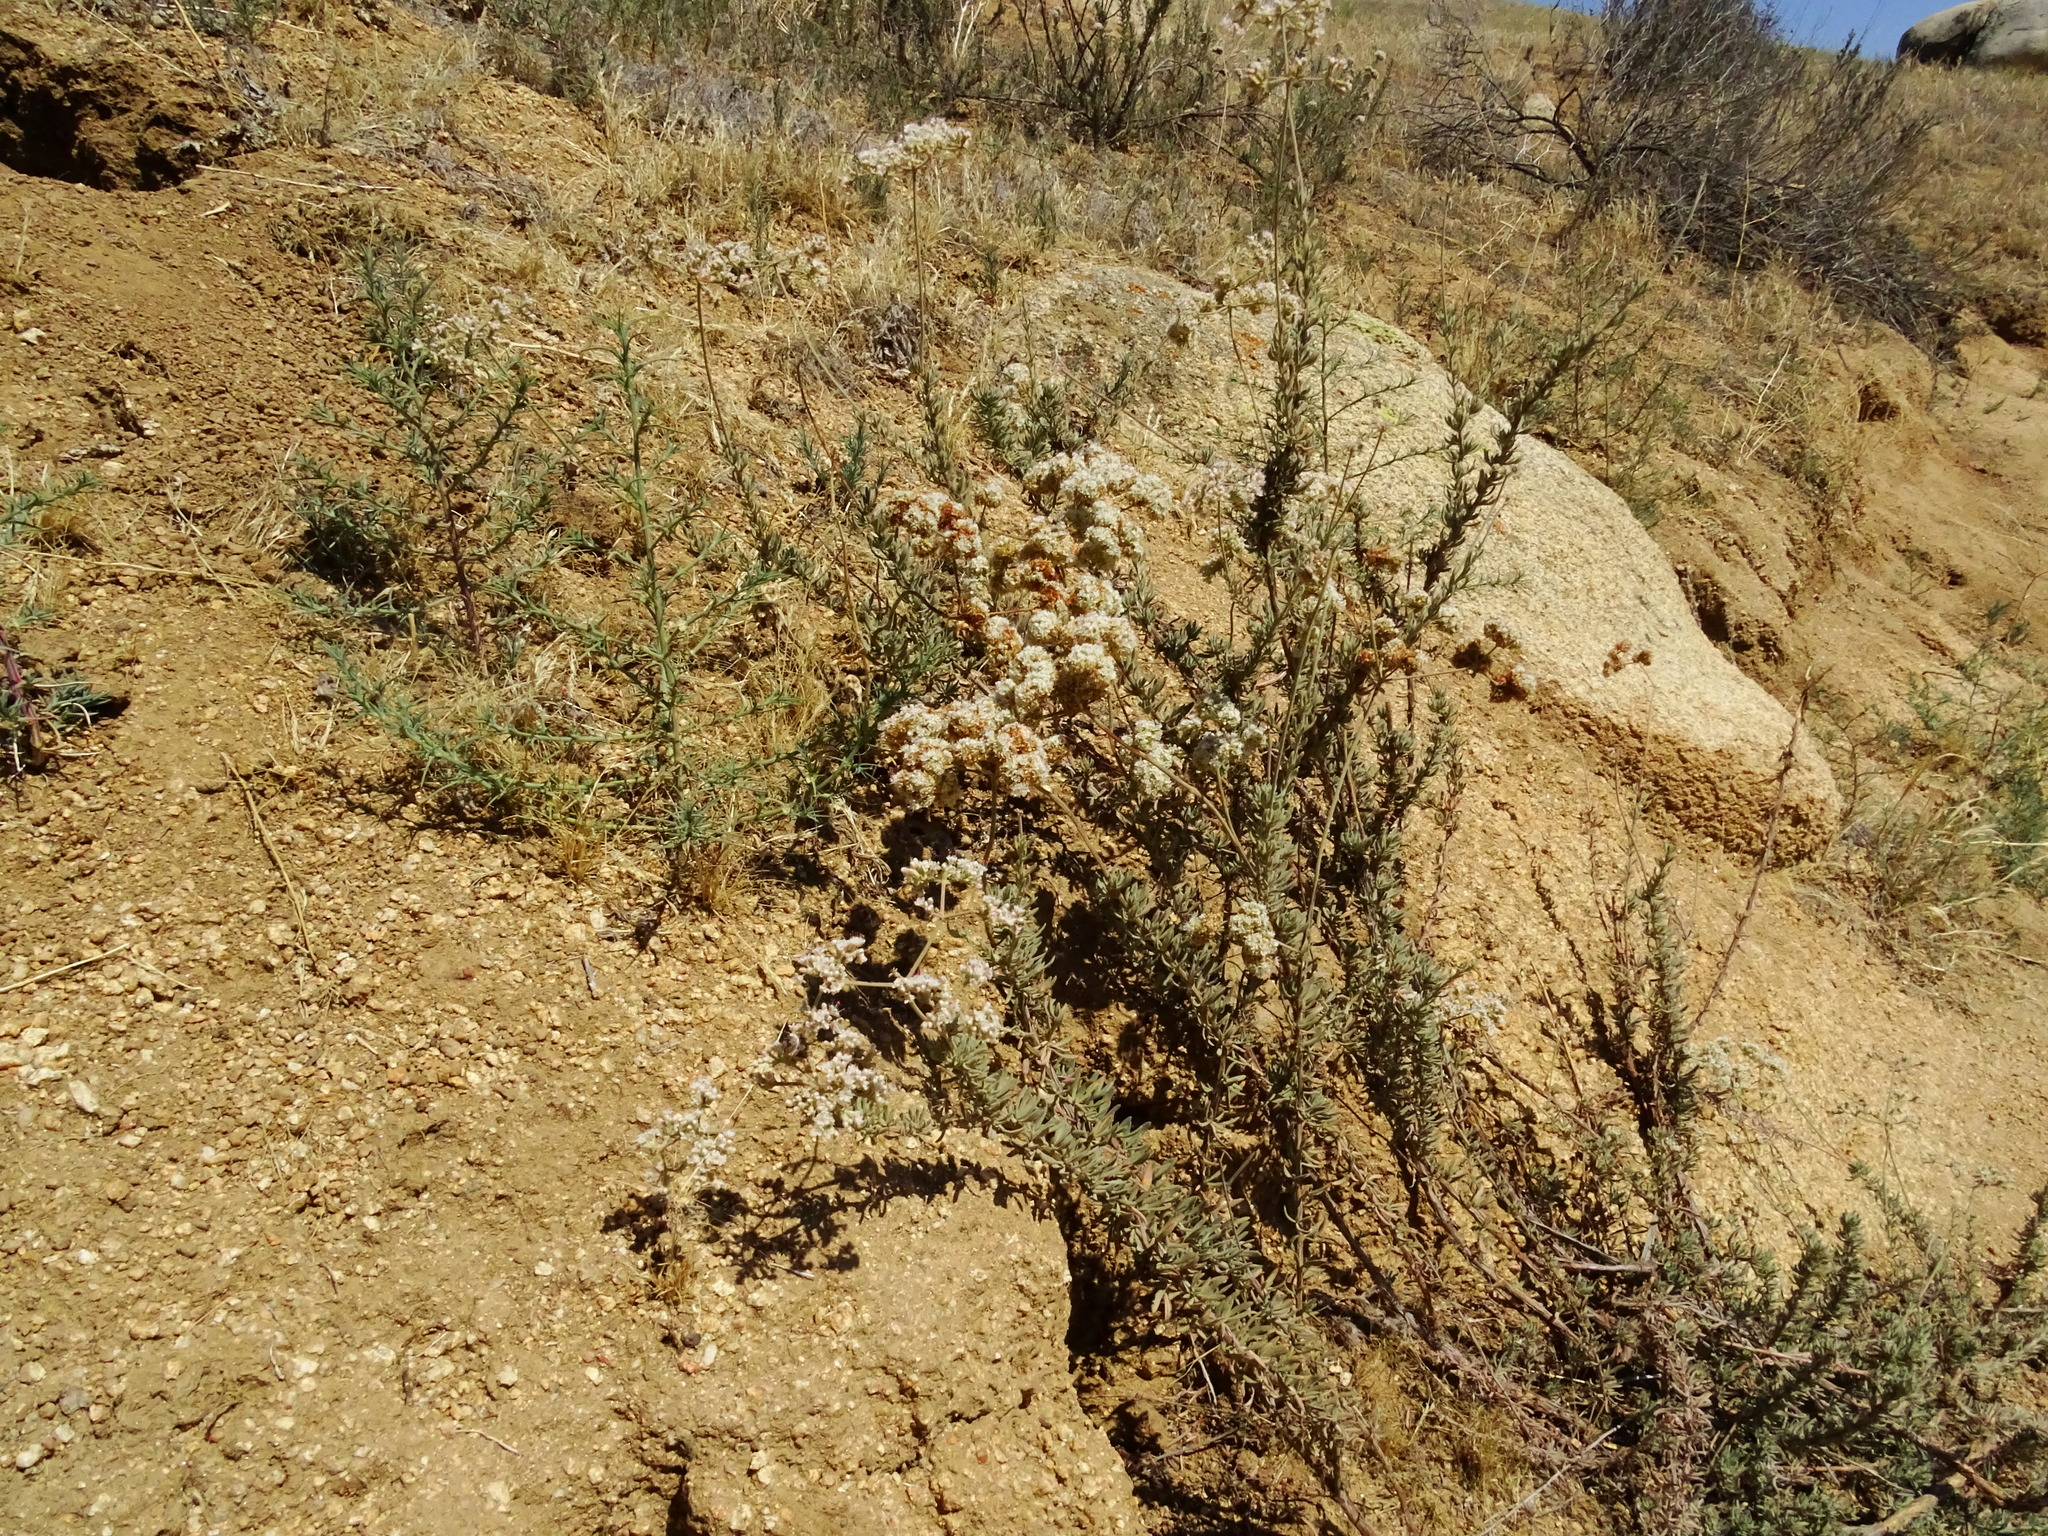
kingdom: Plantae
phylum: Tracheophyta
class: Magnoliopsida
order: Caryophyllales
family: Polygonaceae
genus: Eriogonum
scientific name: Eriogonum fasciculatum
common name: California wild buckwheat
